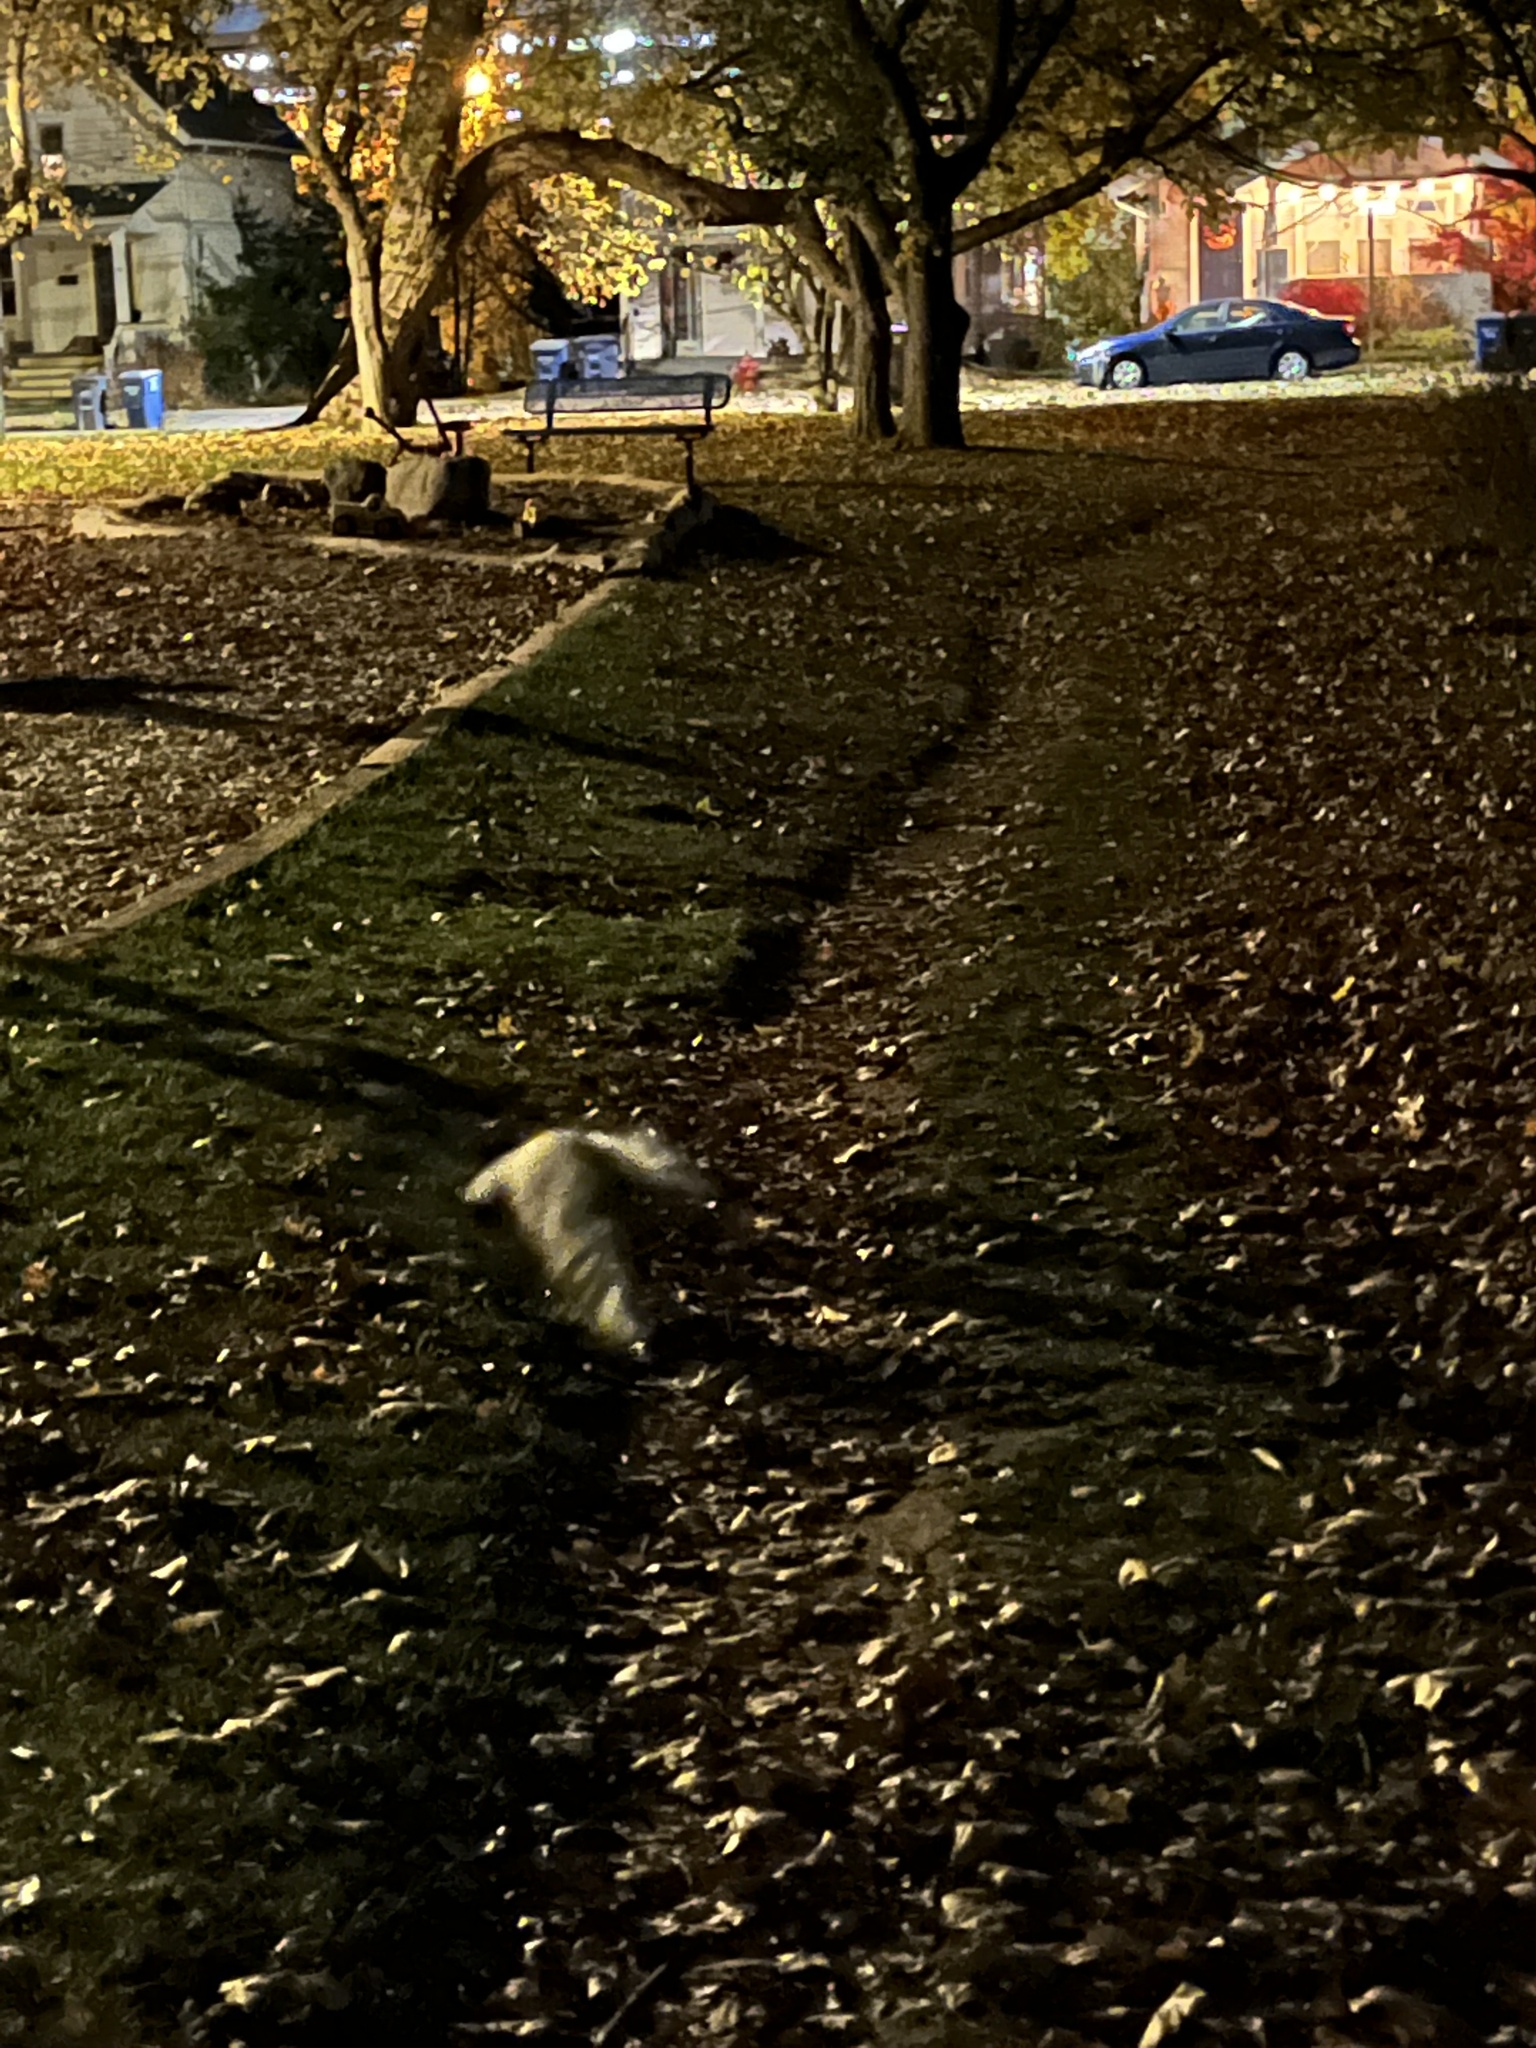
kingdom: Animalia
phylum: Chordata
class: Mammalia
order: Carnivora
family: Mephitidae
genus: Mephitis
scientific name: Mephitis mephitis
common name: Striped skunk
